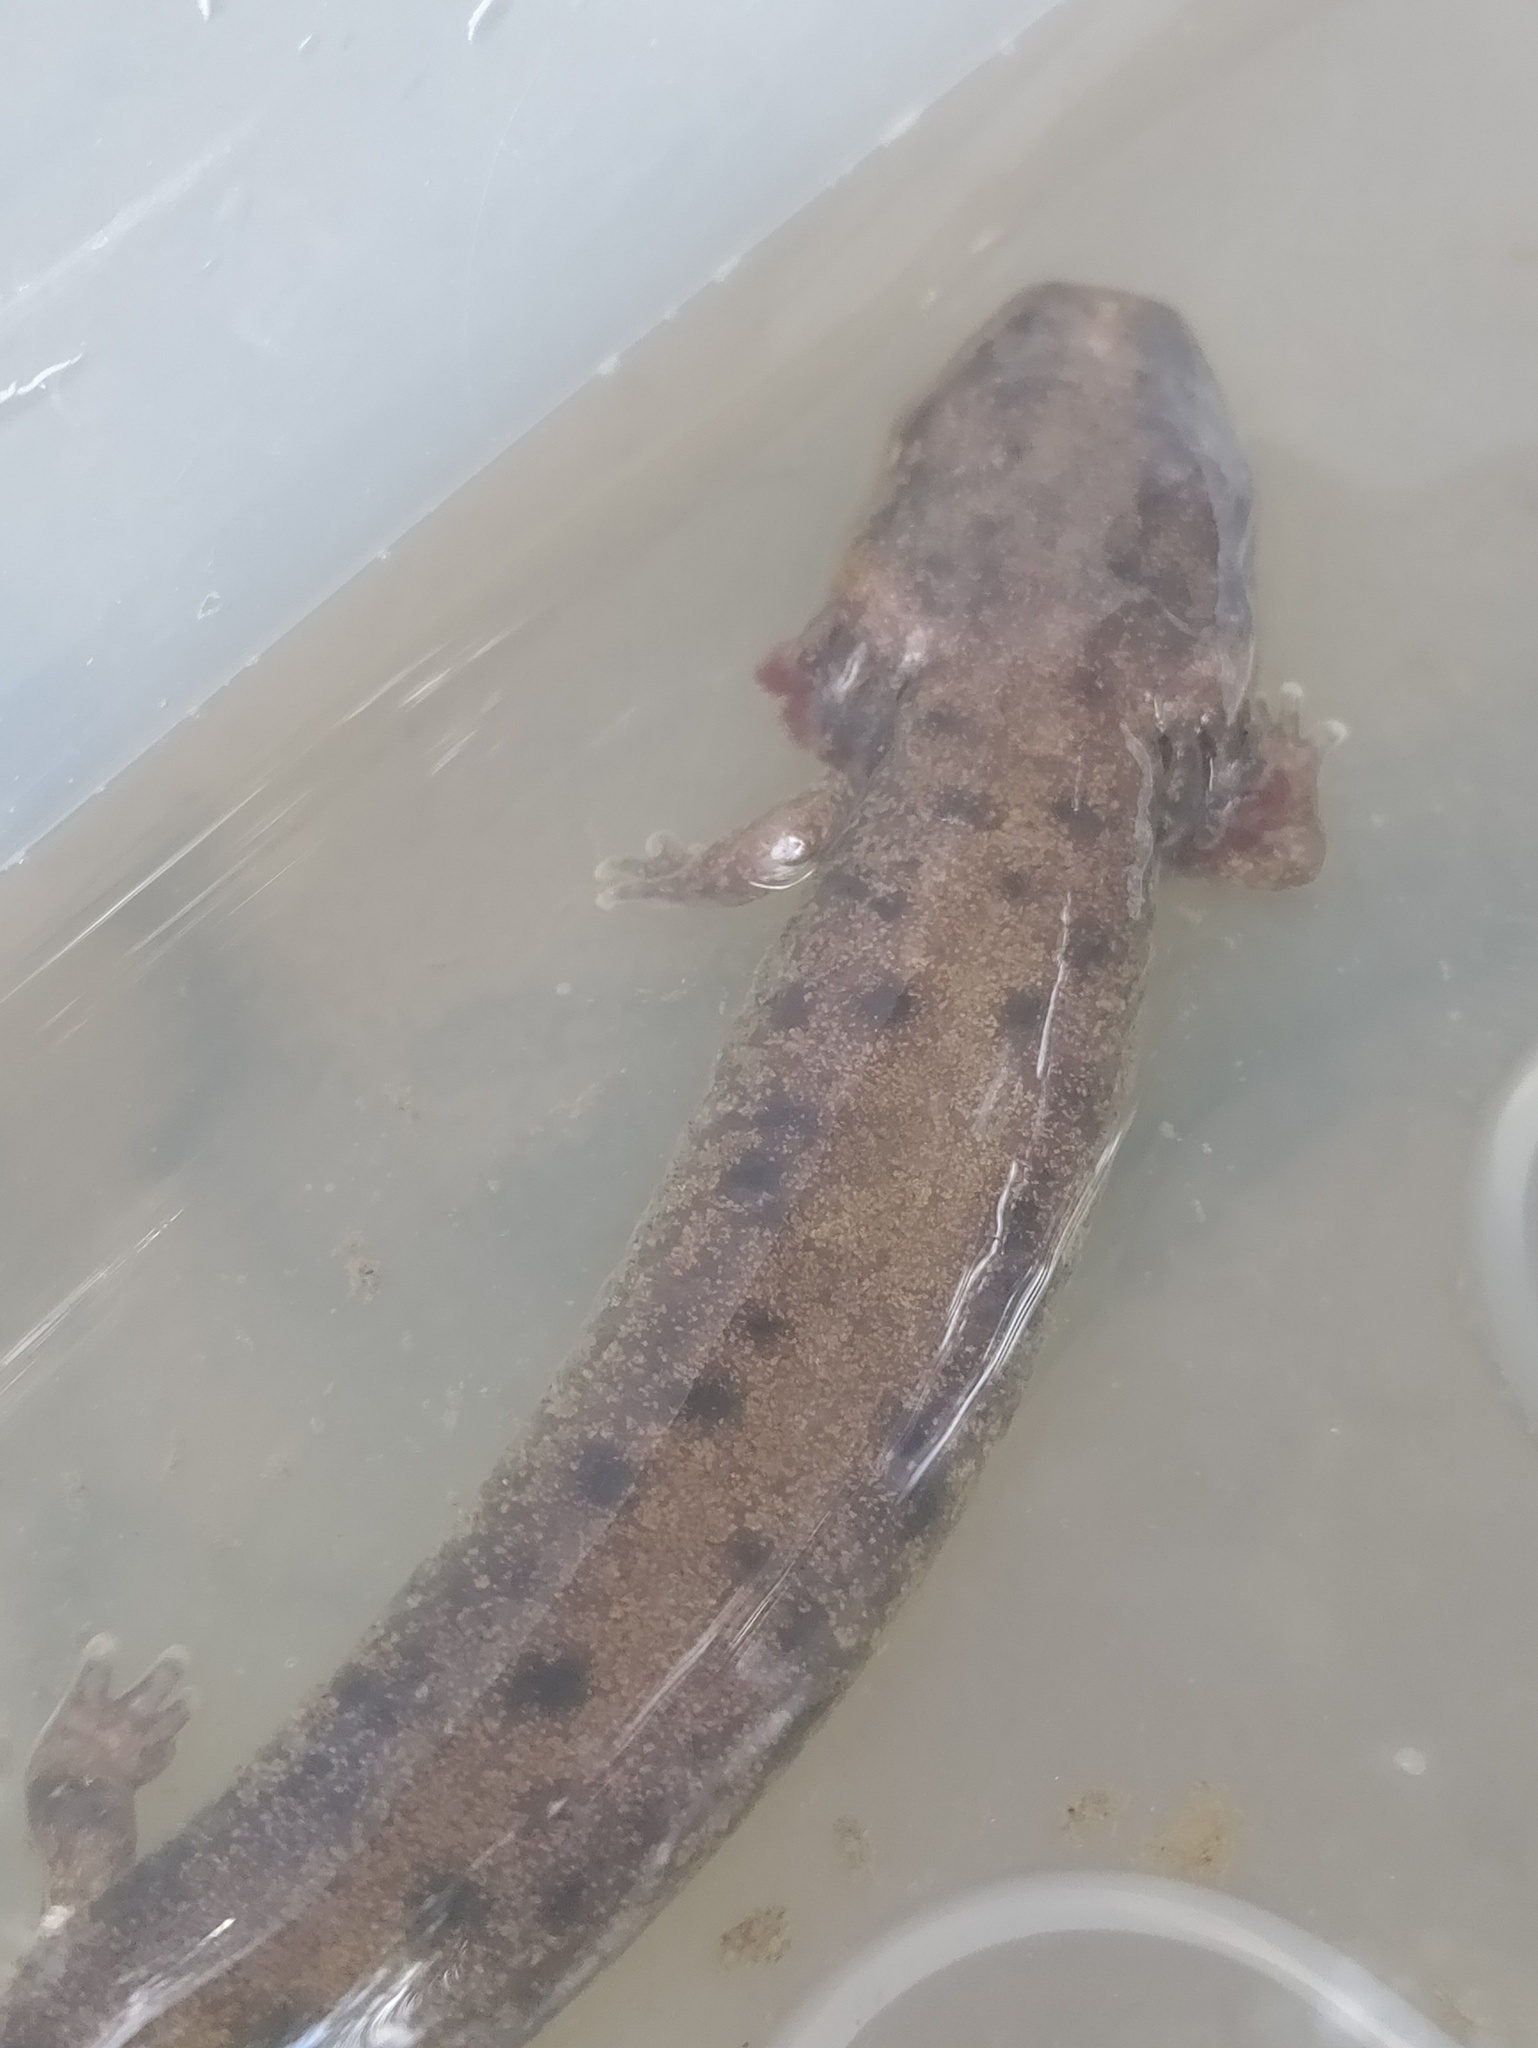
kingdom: Animalia
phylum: Chordata
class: Amphibia
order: Caudata
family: Proteidae
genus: Necturus
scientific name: Necturus maculosus
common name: Mudpuppy
